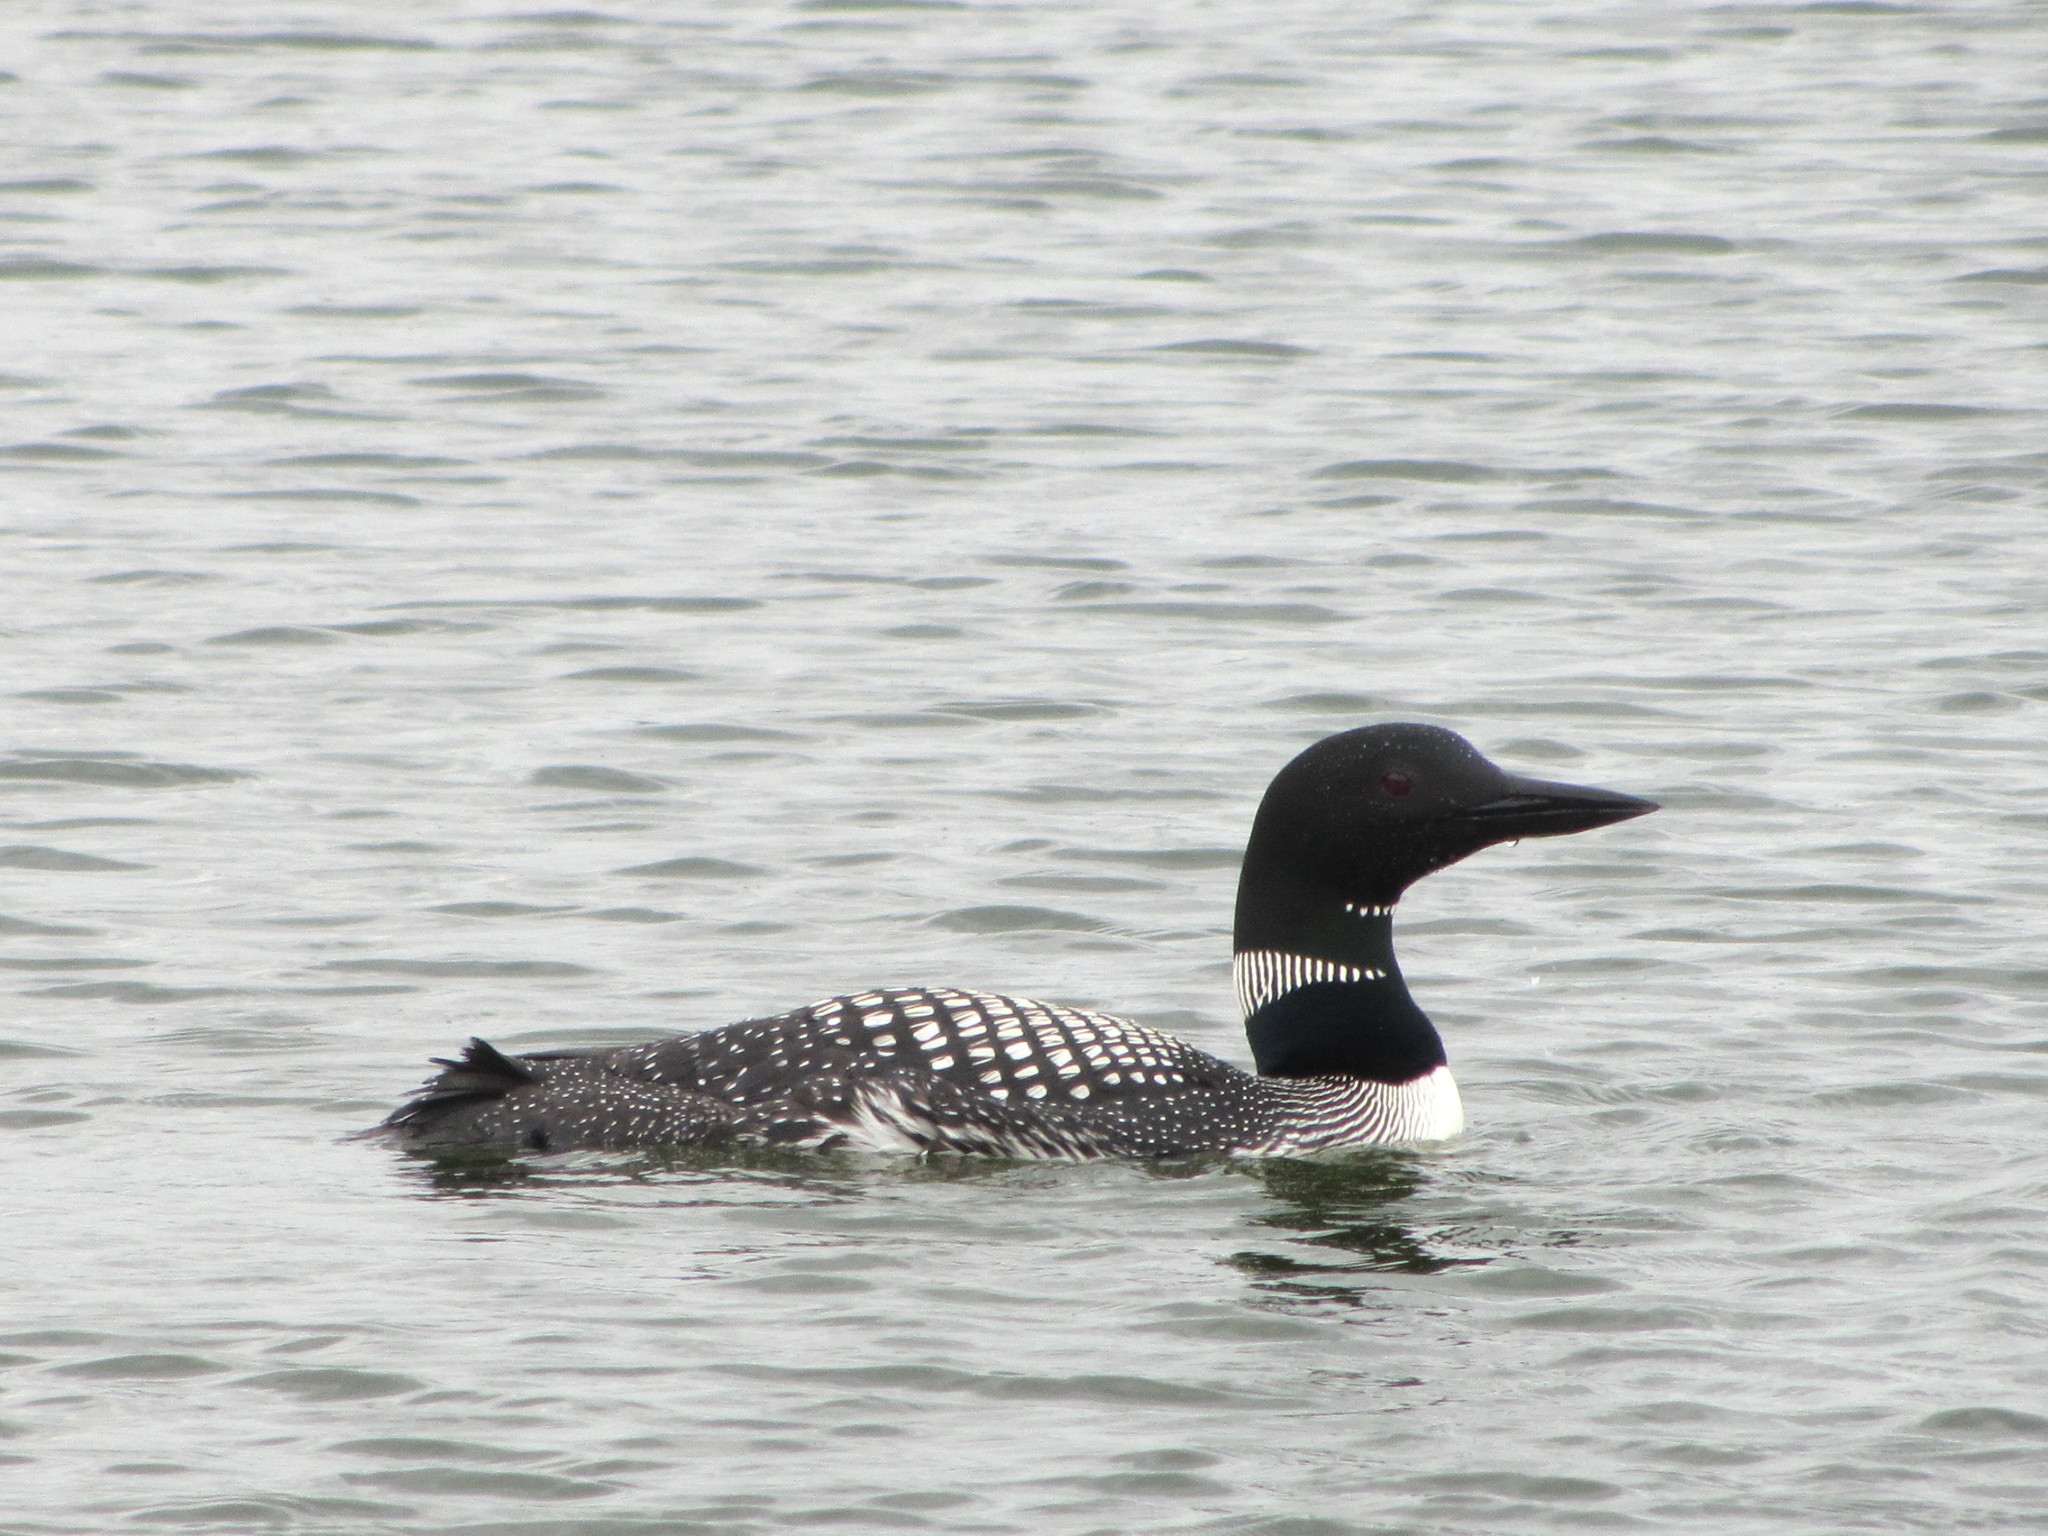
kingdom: Animalia
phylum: Chordata
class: Aves
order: Gaviiformes
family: Gaviidae
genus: Gavia
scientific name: Gavia immer
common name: Common loon
